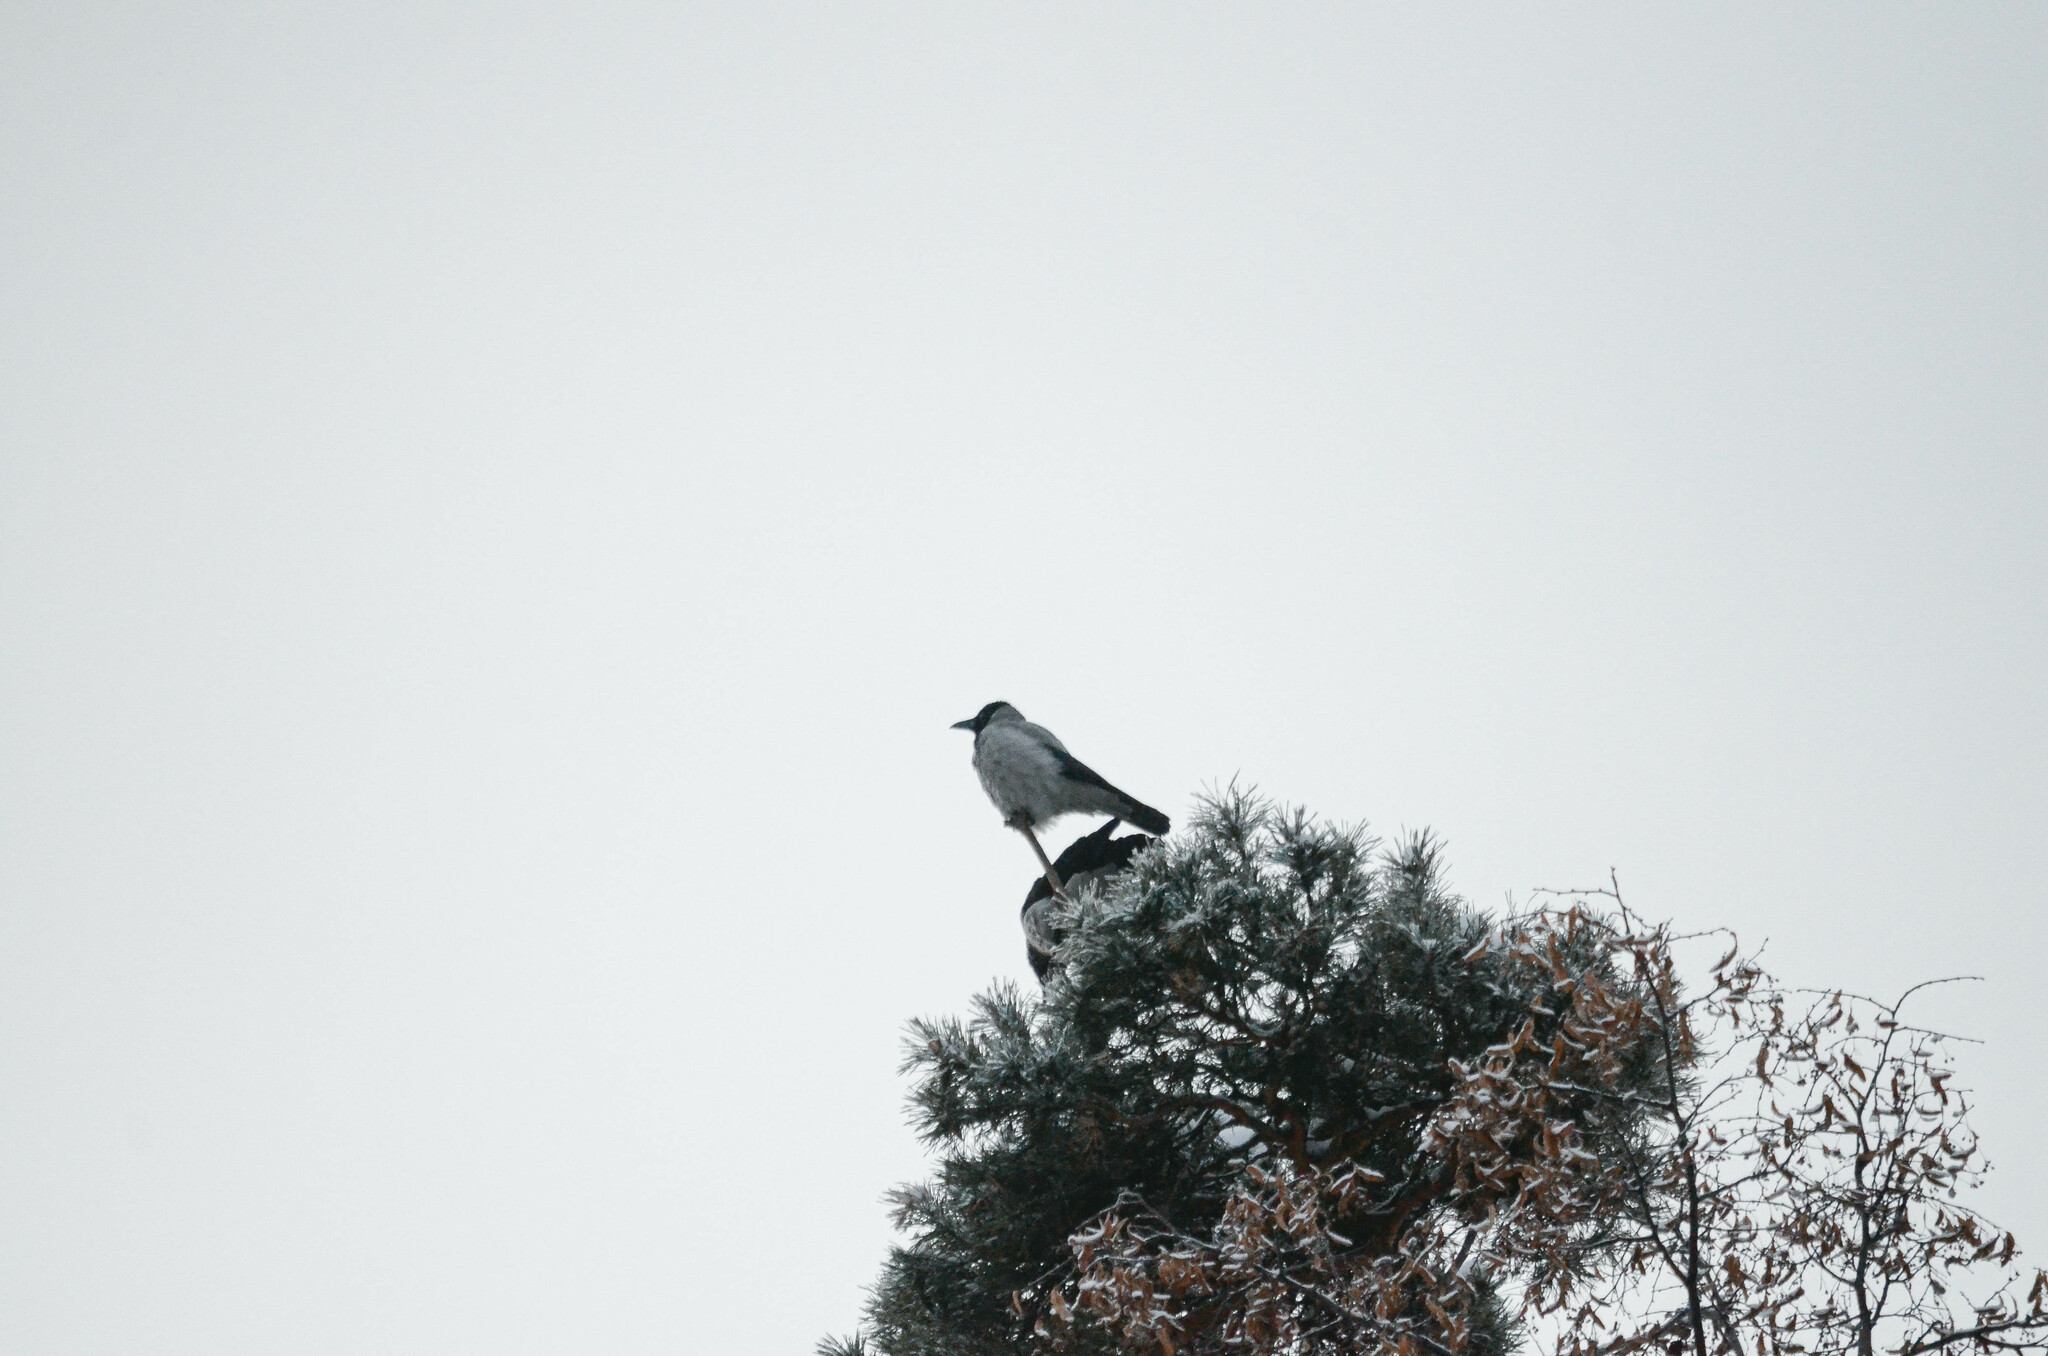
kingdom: Animalia
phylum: Chordata
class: Aves
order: Passeriformes
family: Corvidae
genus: Corvus
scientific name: Corvus cornix
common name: Hooded crow
